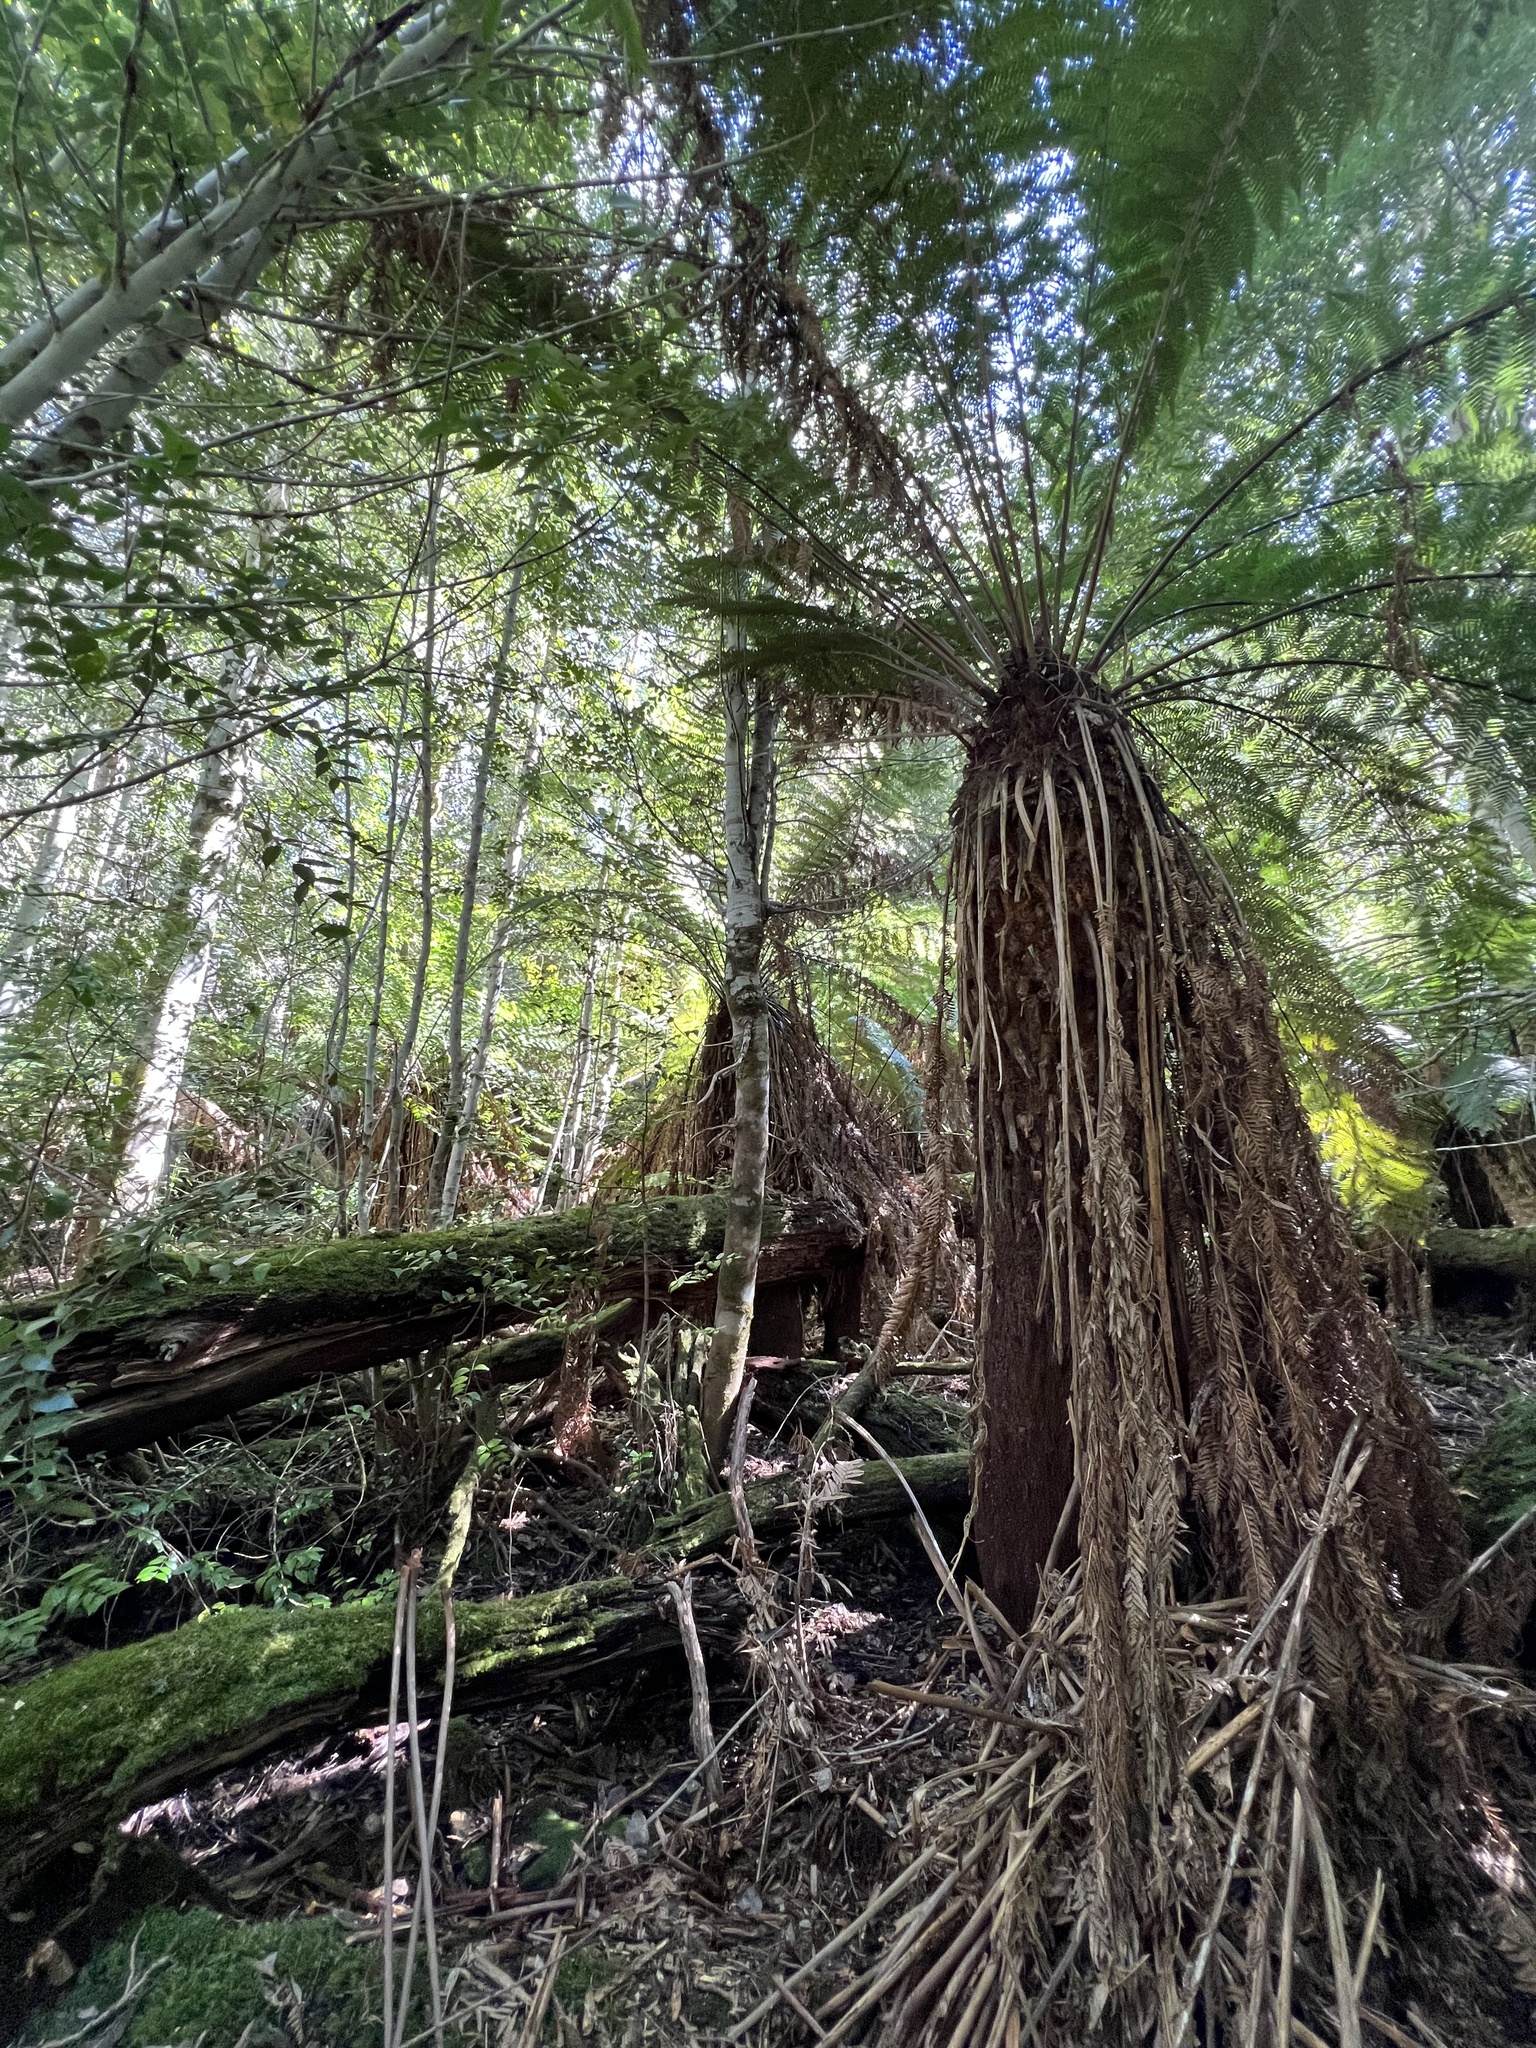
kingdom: Plantae
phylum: Tracheophyta
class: Polypodiopsida
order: Cyatheales
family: Dicksoniaceae
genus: Dicksonia
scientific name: Dicksonia antarctica
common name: Australian treefern
